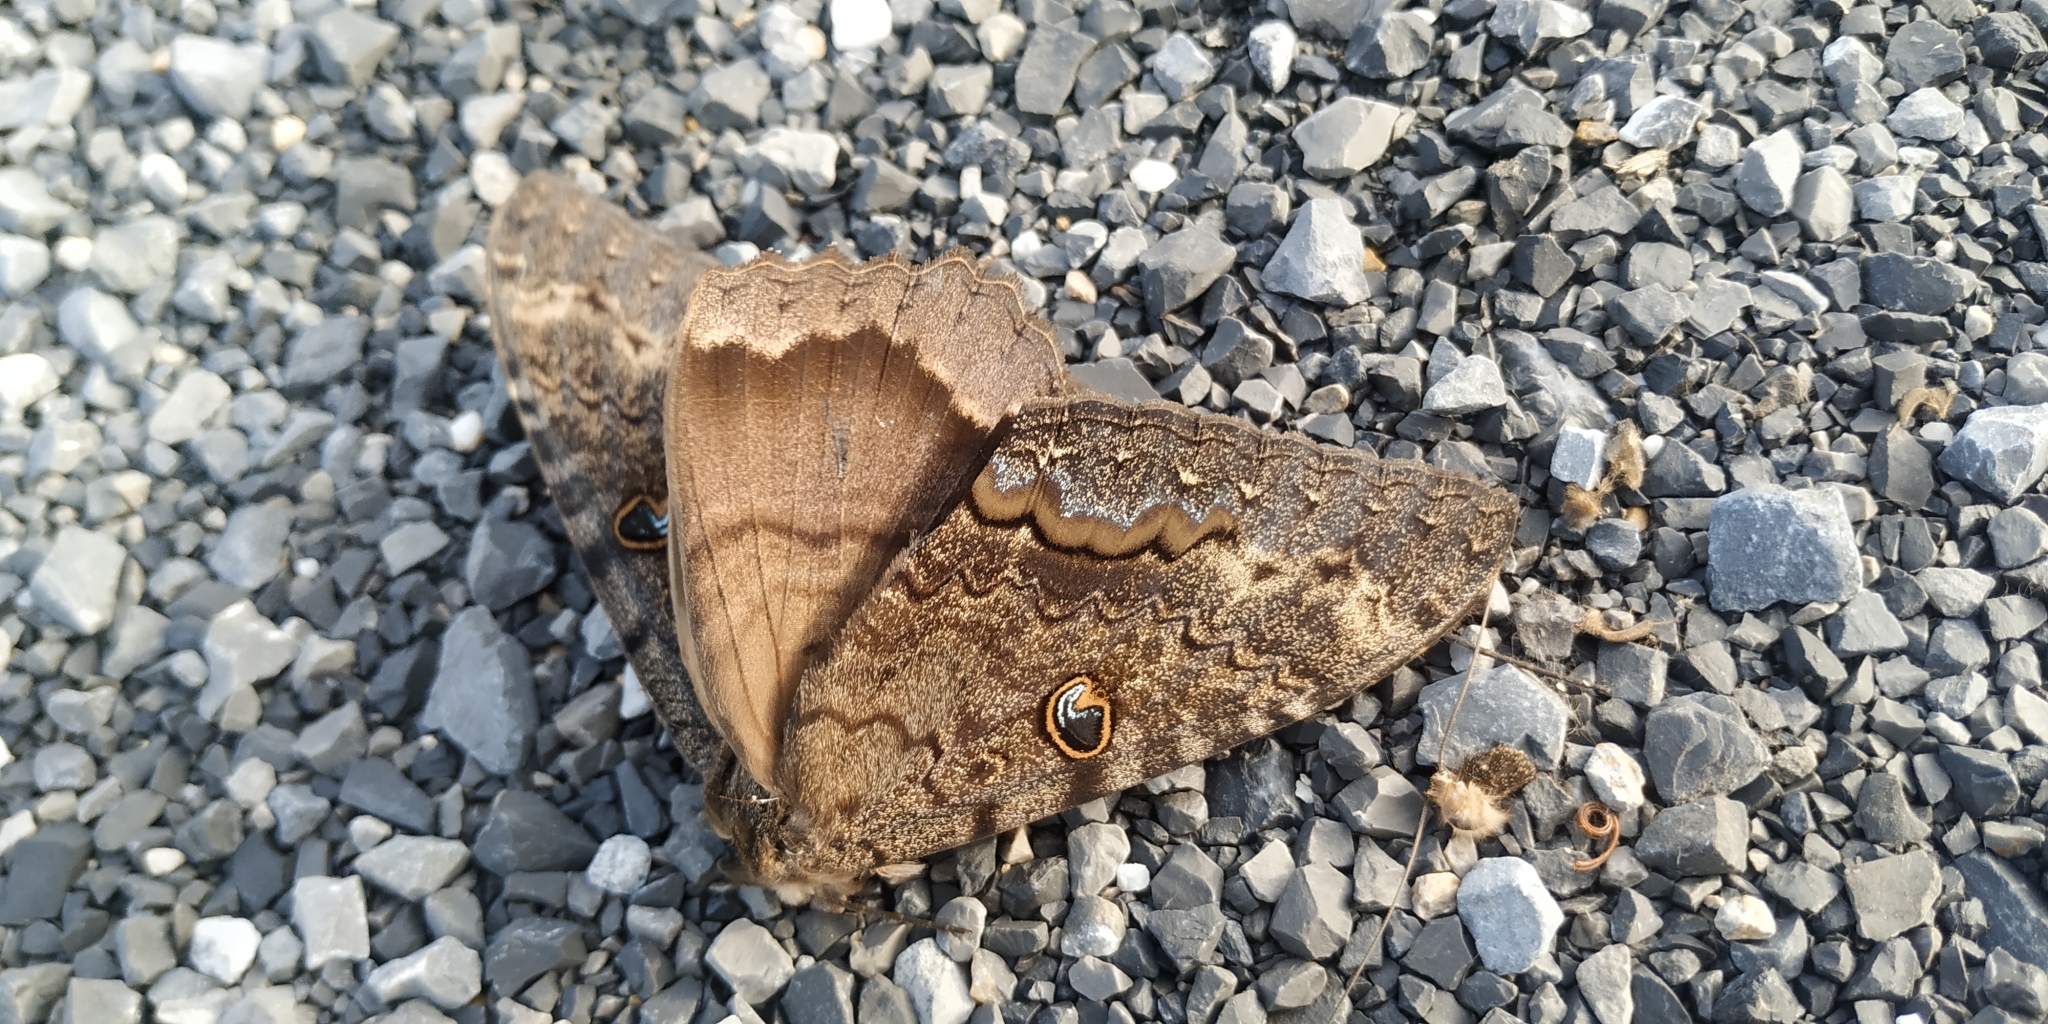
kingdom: Animalia
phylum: Arthropoda
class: Insecta
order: Lepidoptera
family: Erebidae
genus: Ascalapha
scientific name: Ascalapha odorata
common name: Black witch
